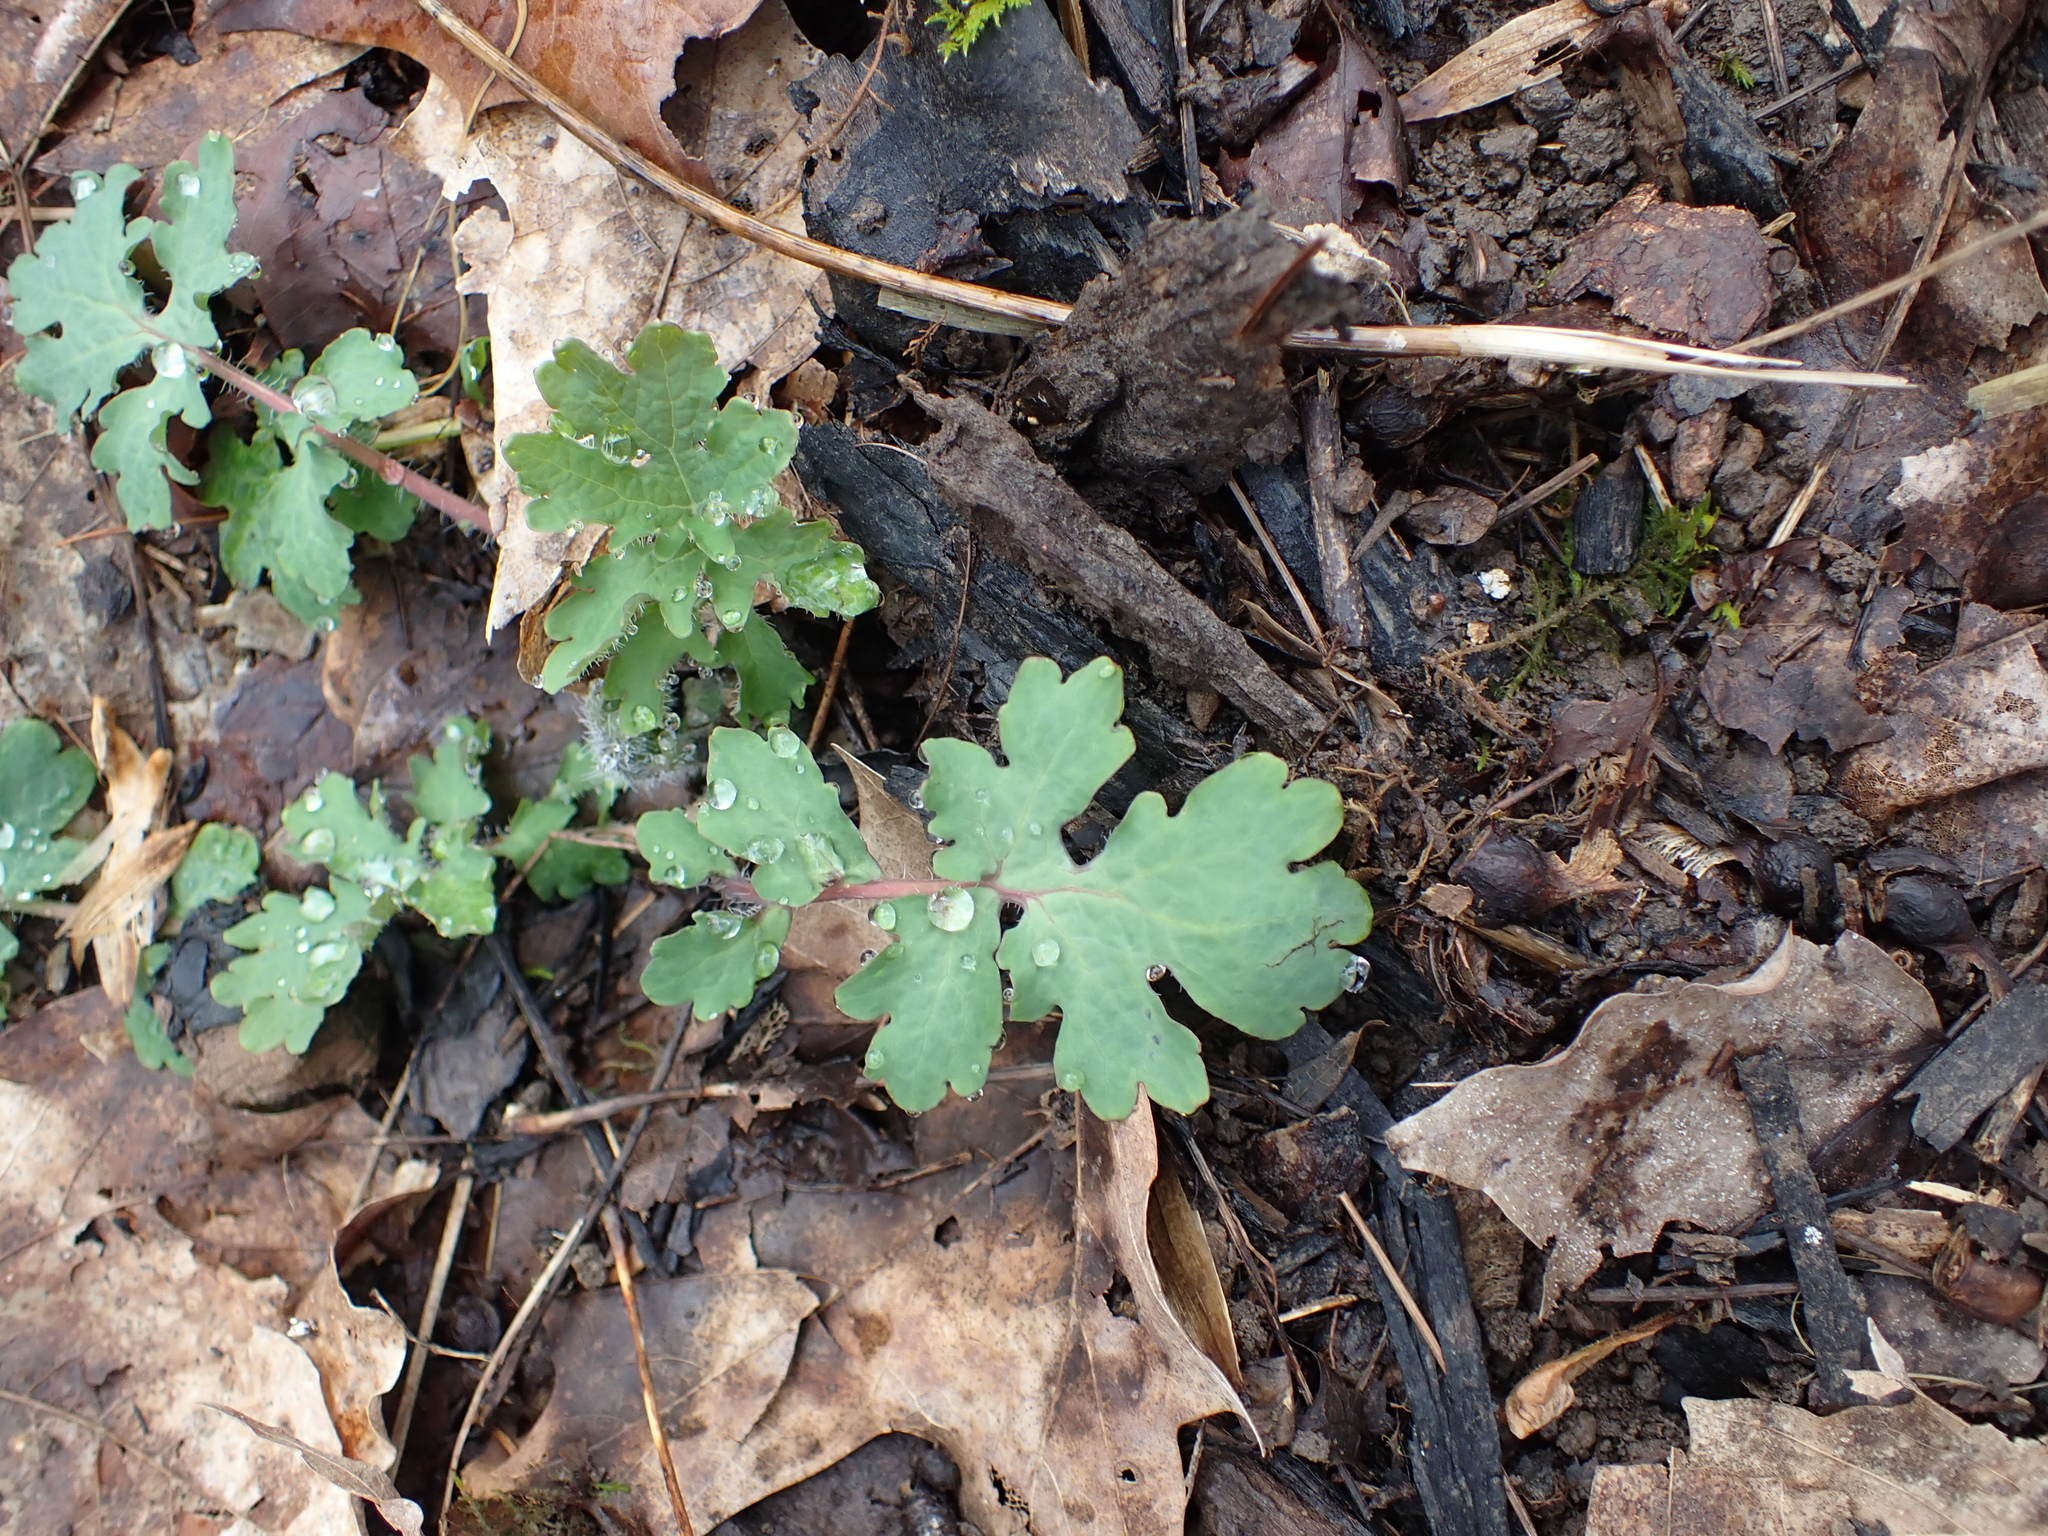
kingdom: Plantae
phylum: Tracheophyta
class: Magnoliopsida
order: Ranunculales
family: Papaveraceae
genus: Stylophorum
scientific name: Stylophorum diphyllum
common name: Celandine poppy
